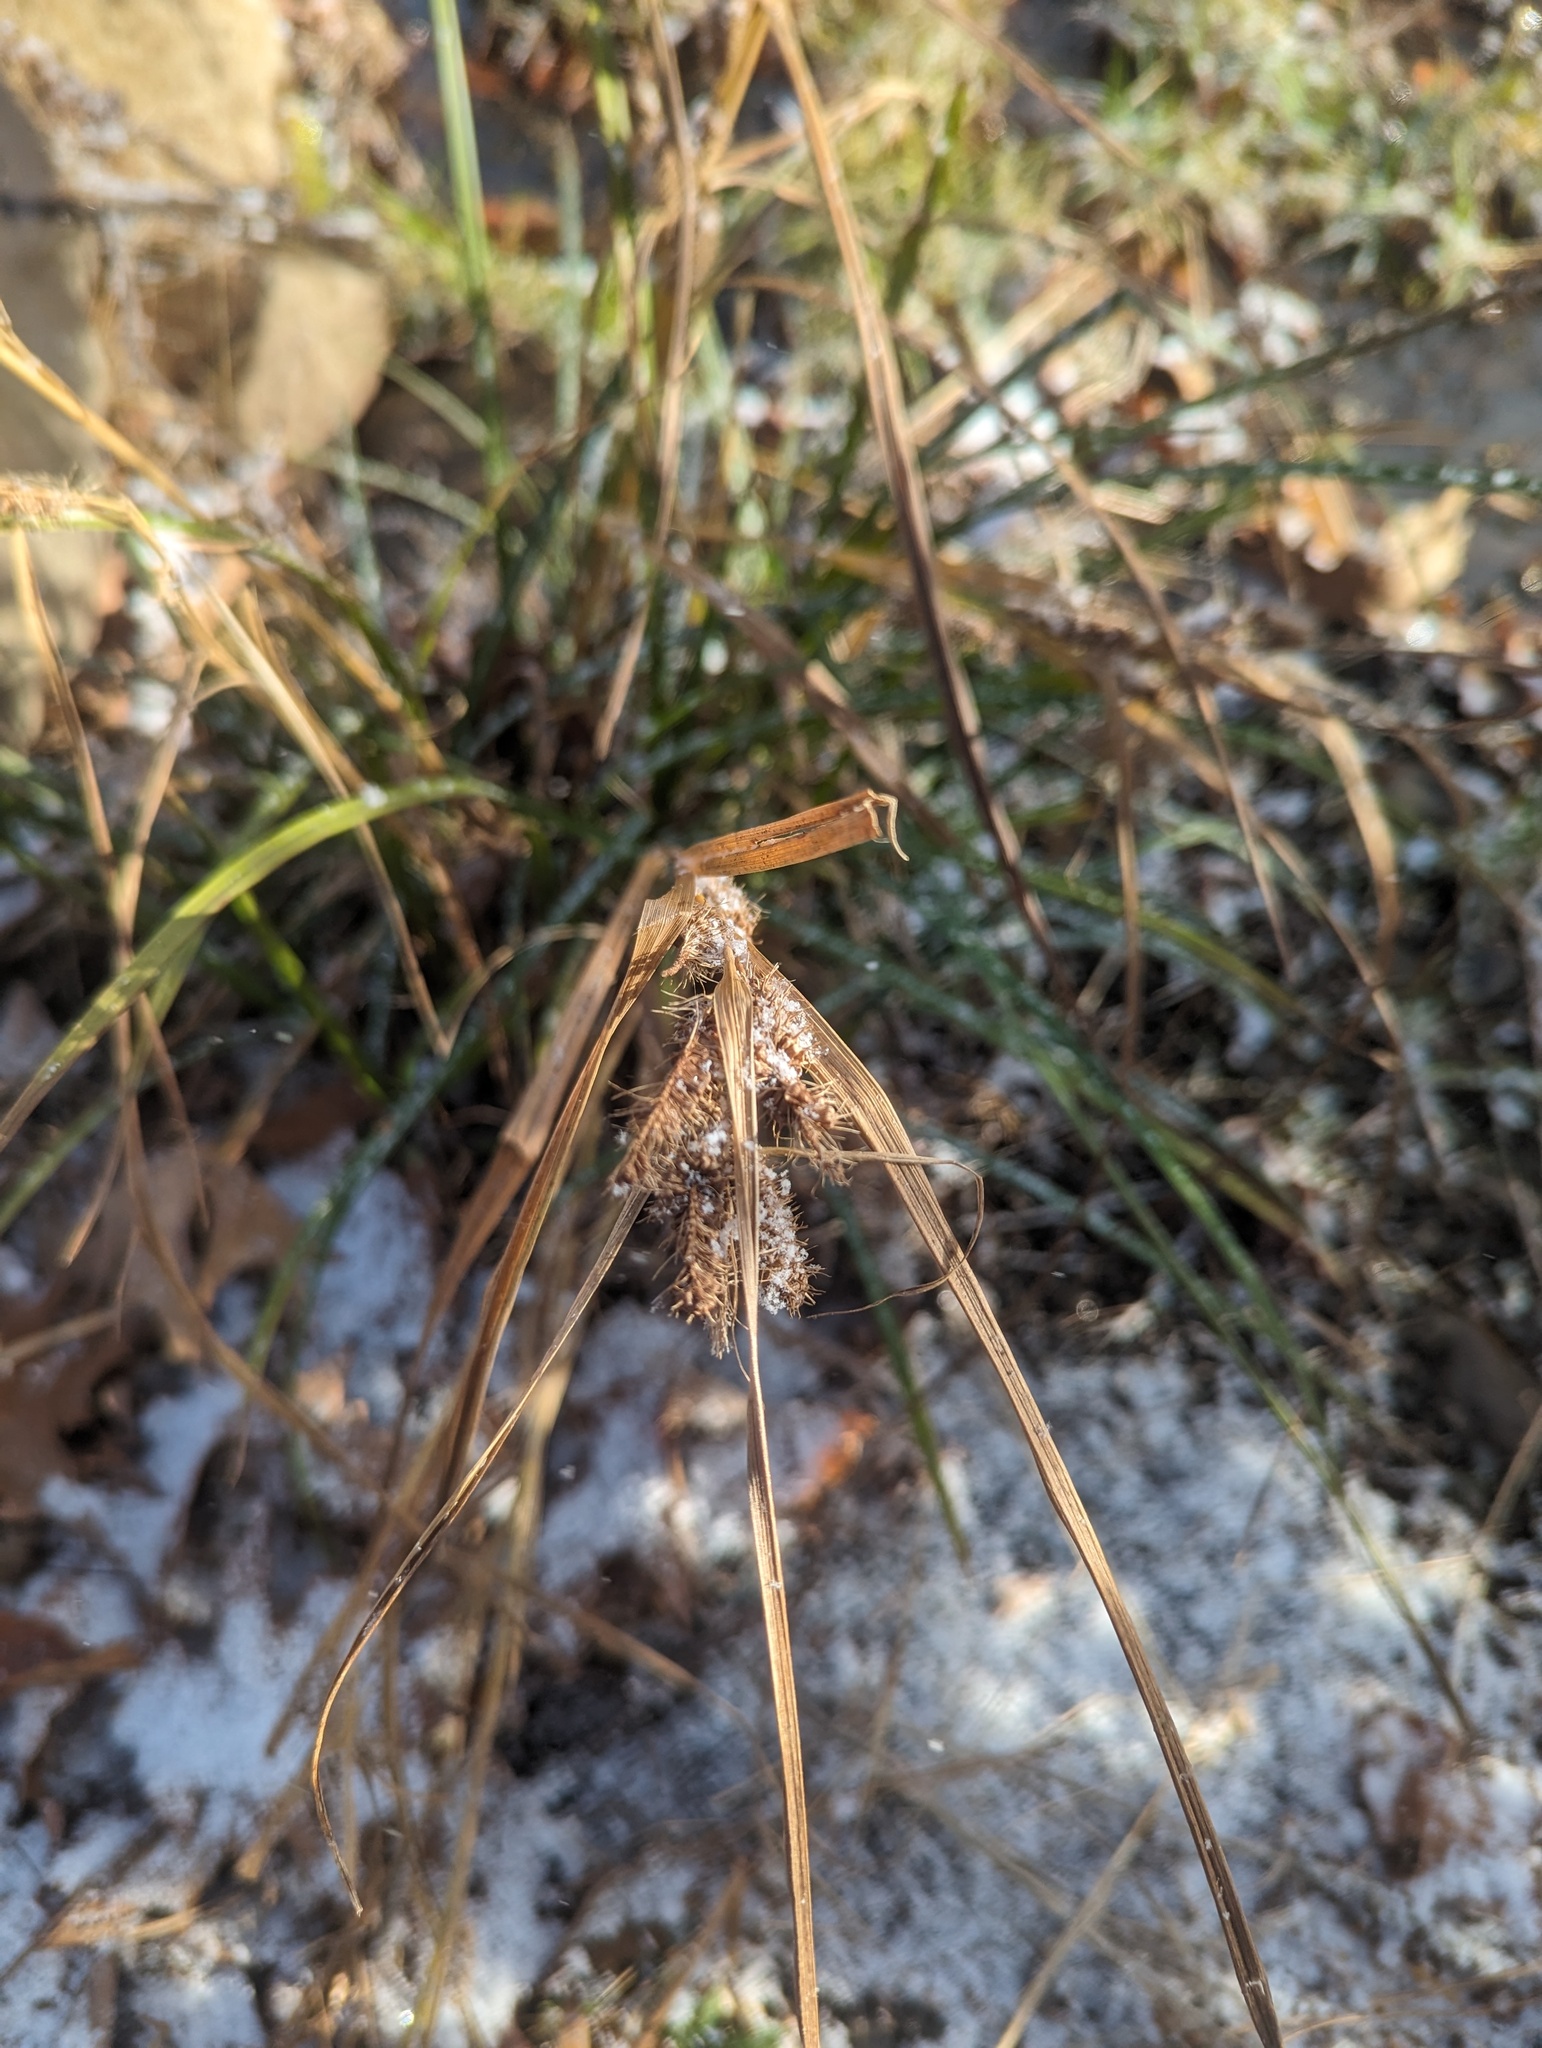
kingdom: Plantae
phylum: Tracheophyta
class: Liliopsida
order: Poales
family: Cyperaceae
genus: Carex
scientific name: Carex frankii
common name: Frank's sedge
